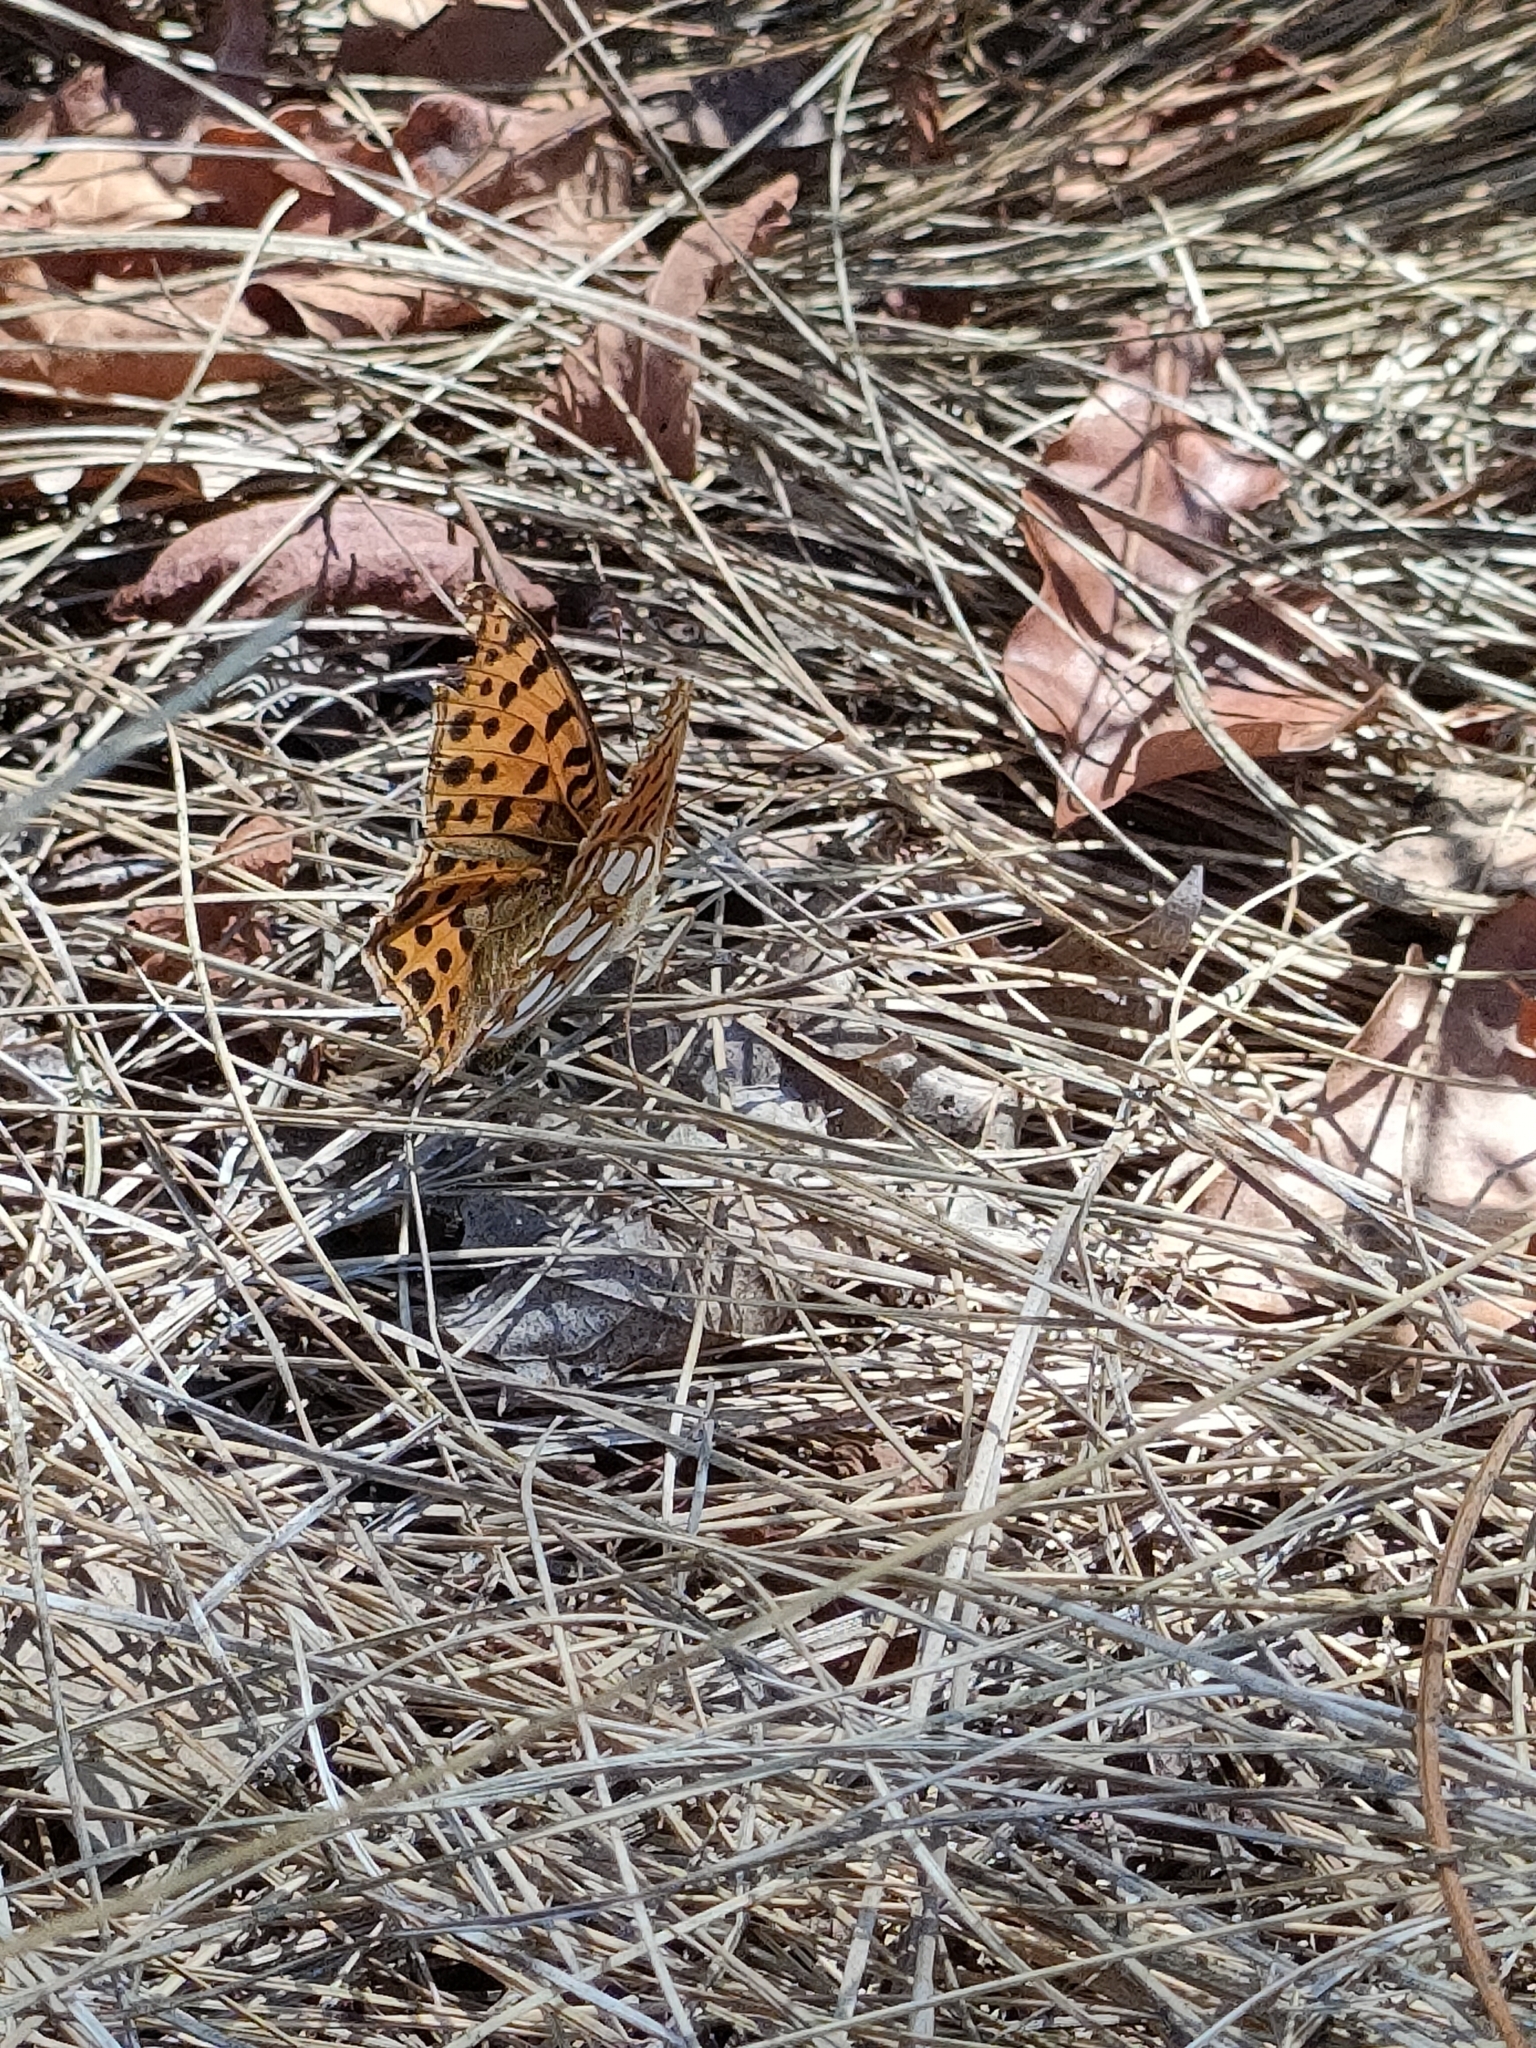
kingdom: Animalia
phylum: Arthropoda
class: Insecta
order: Lepidoptera
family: Nymphalidae
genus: Issoria
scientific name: Issoria lathonia
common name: Queen of spain fritillary
